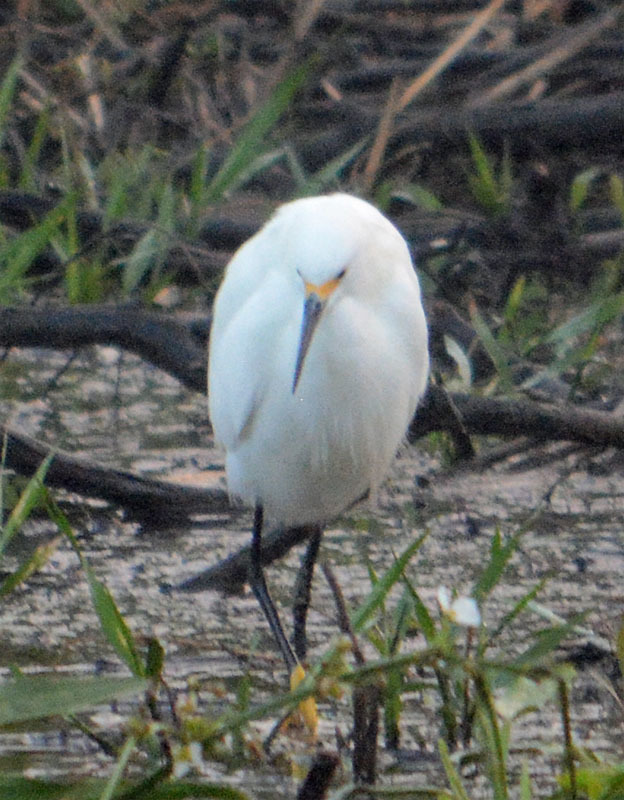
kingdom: Animalia
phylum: Chordata
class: Aves
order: Pelecaniformes
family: Ardeidae
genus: Egretta
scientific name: Egretta thula
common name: Snowy egret
